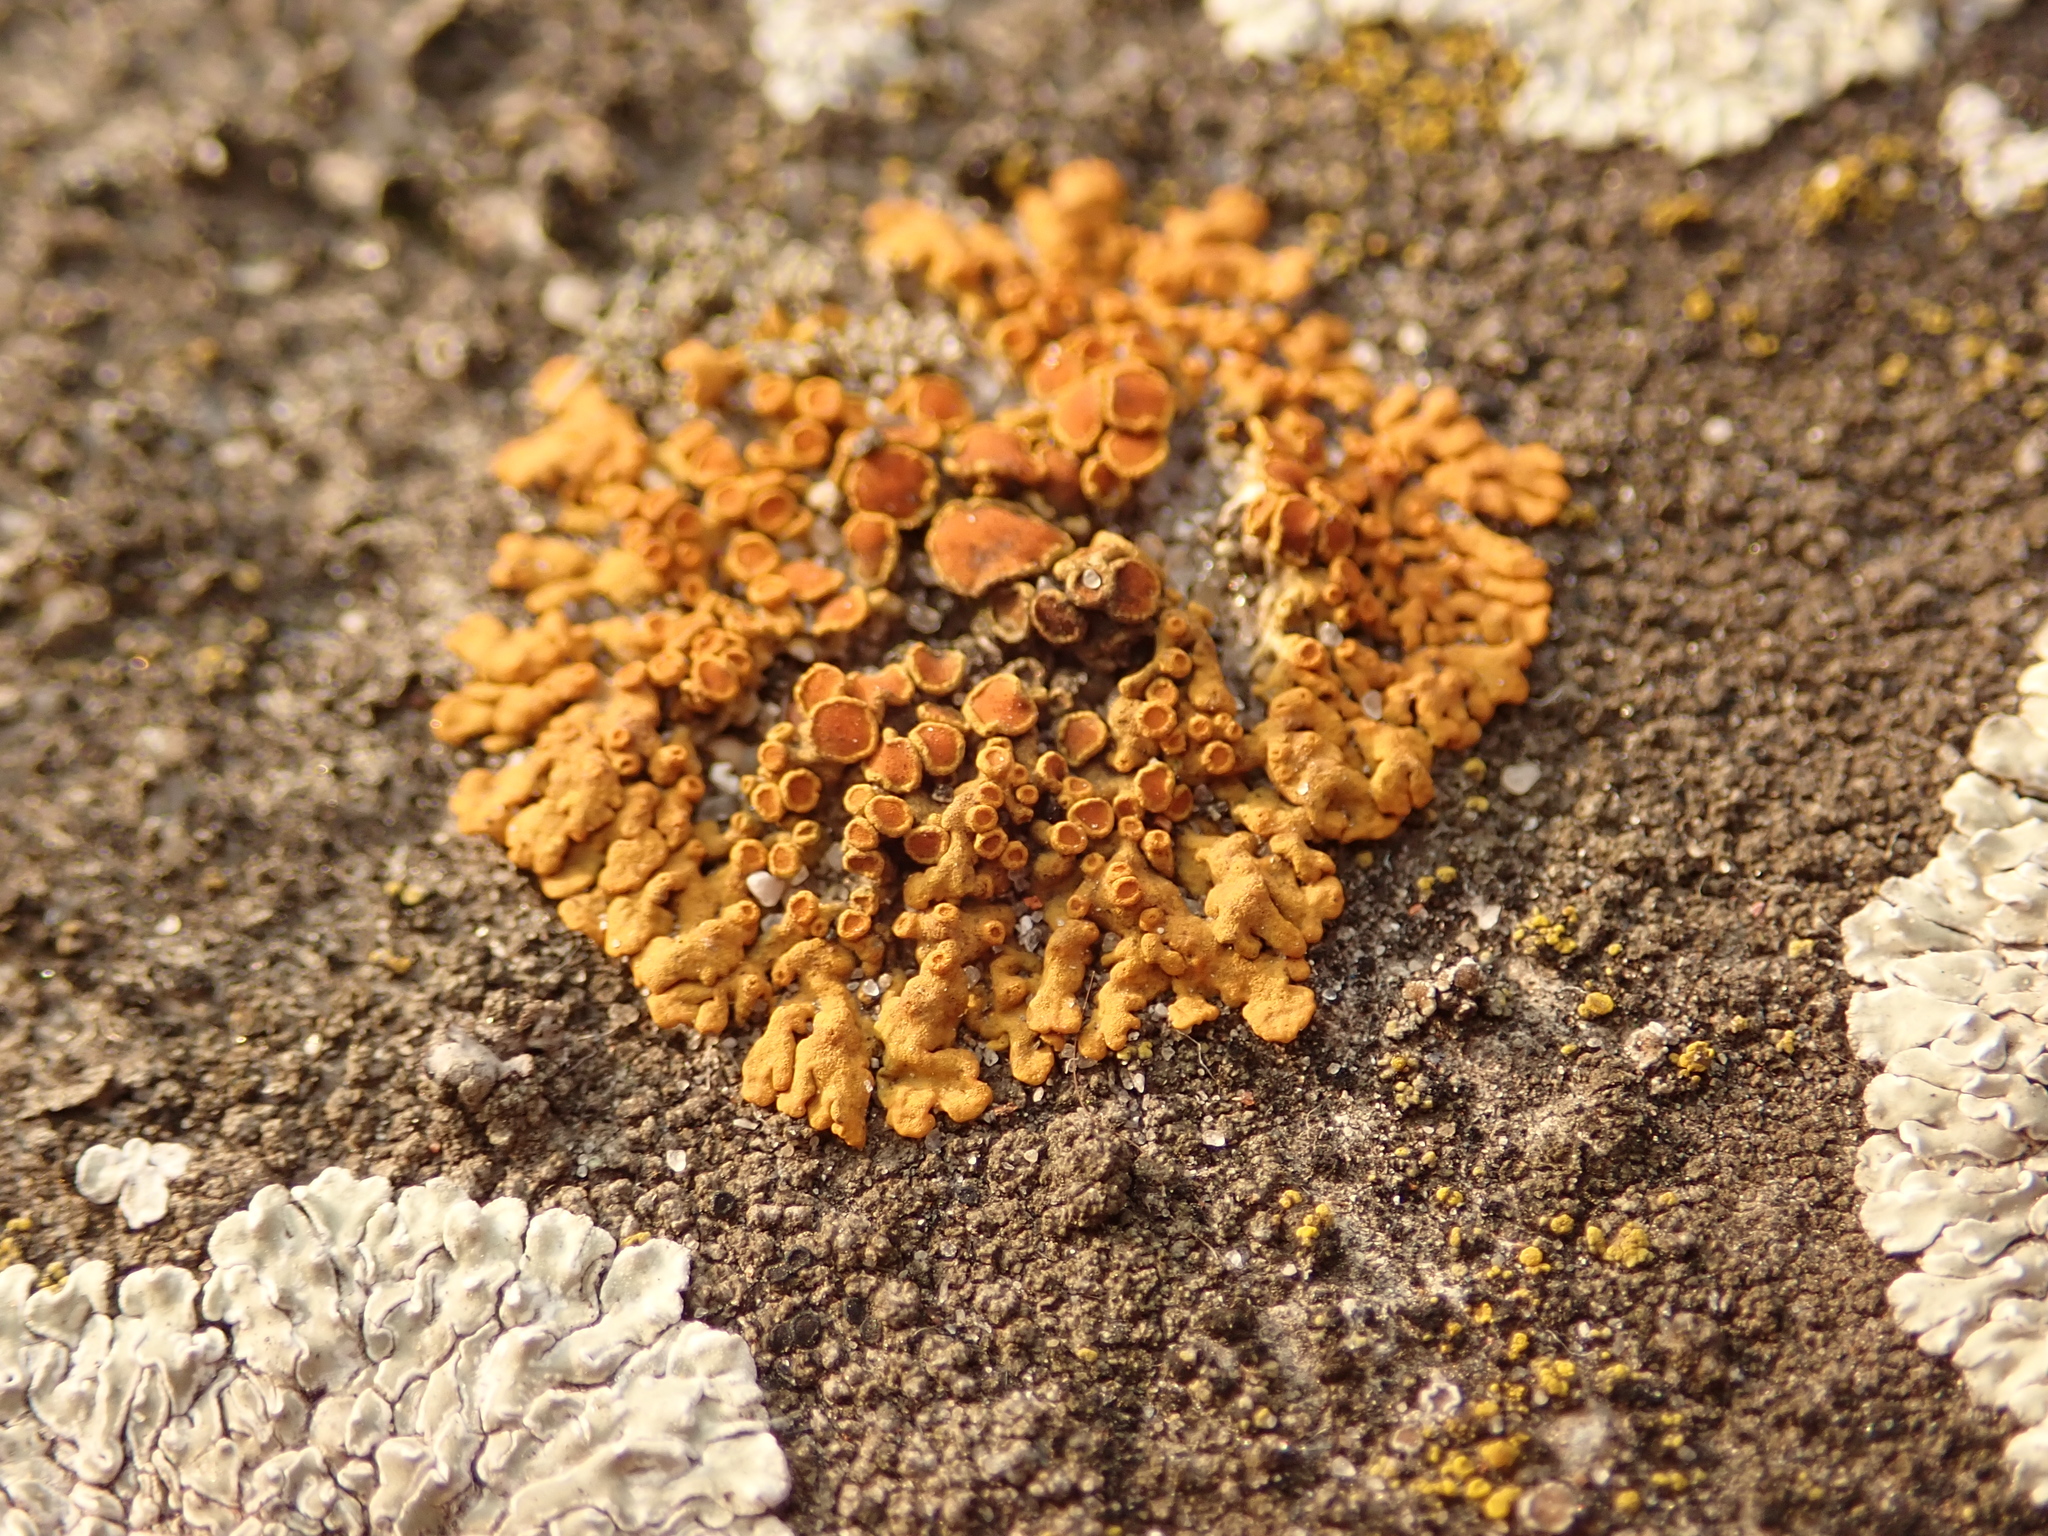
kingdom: Fungi
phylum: Ascomycota
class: Lecanoromycetes
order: Teloschistales
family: Teloschistaceae
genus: Xanthoria
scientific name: Xanthoria elegans
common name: Elegant sunburst lichen
